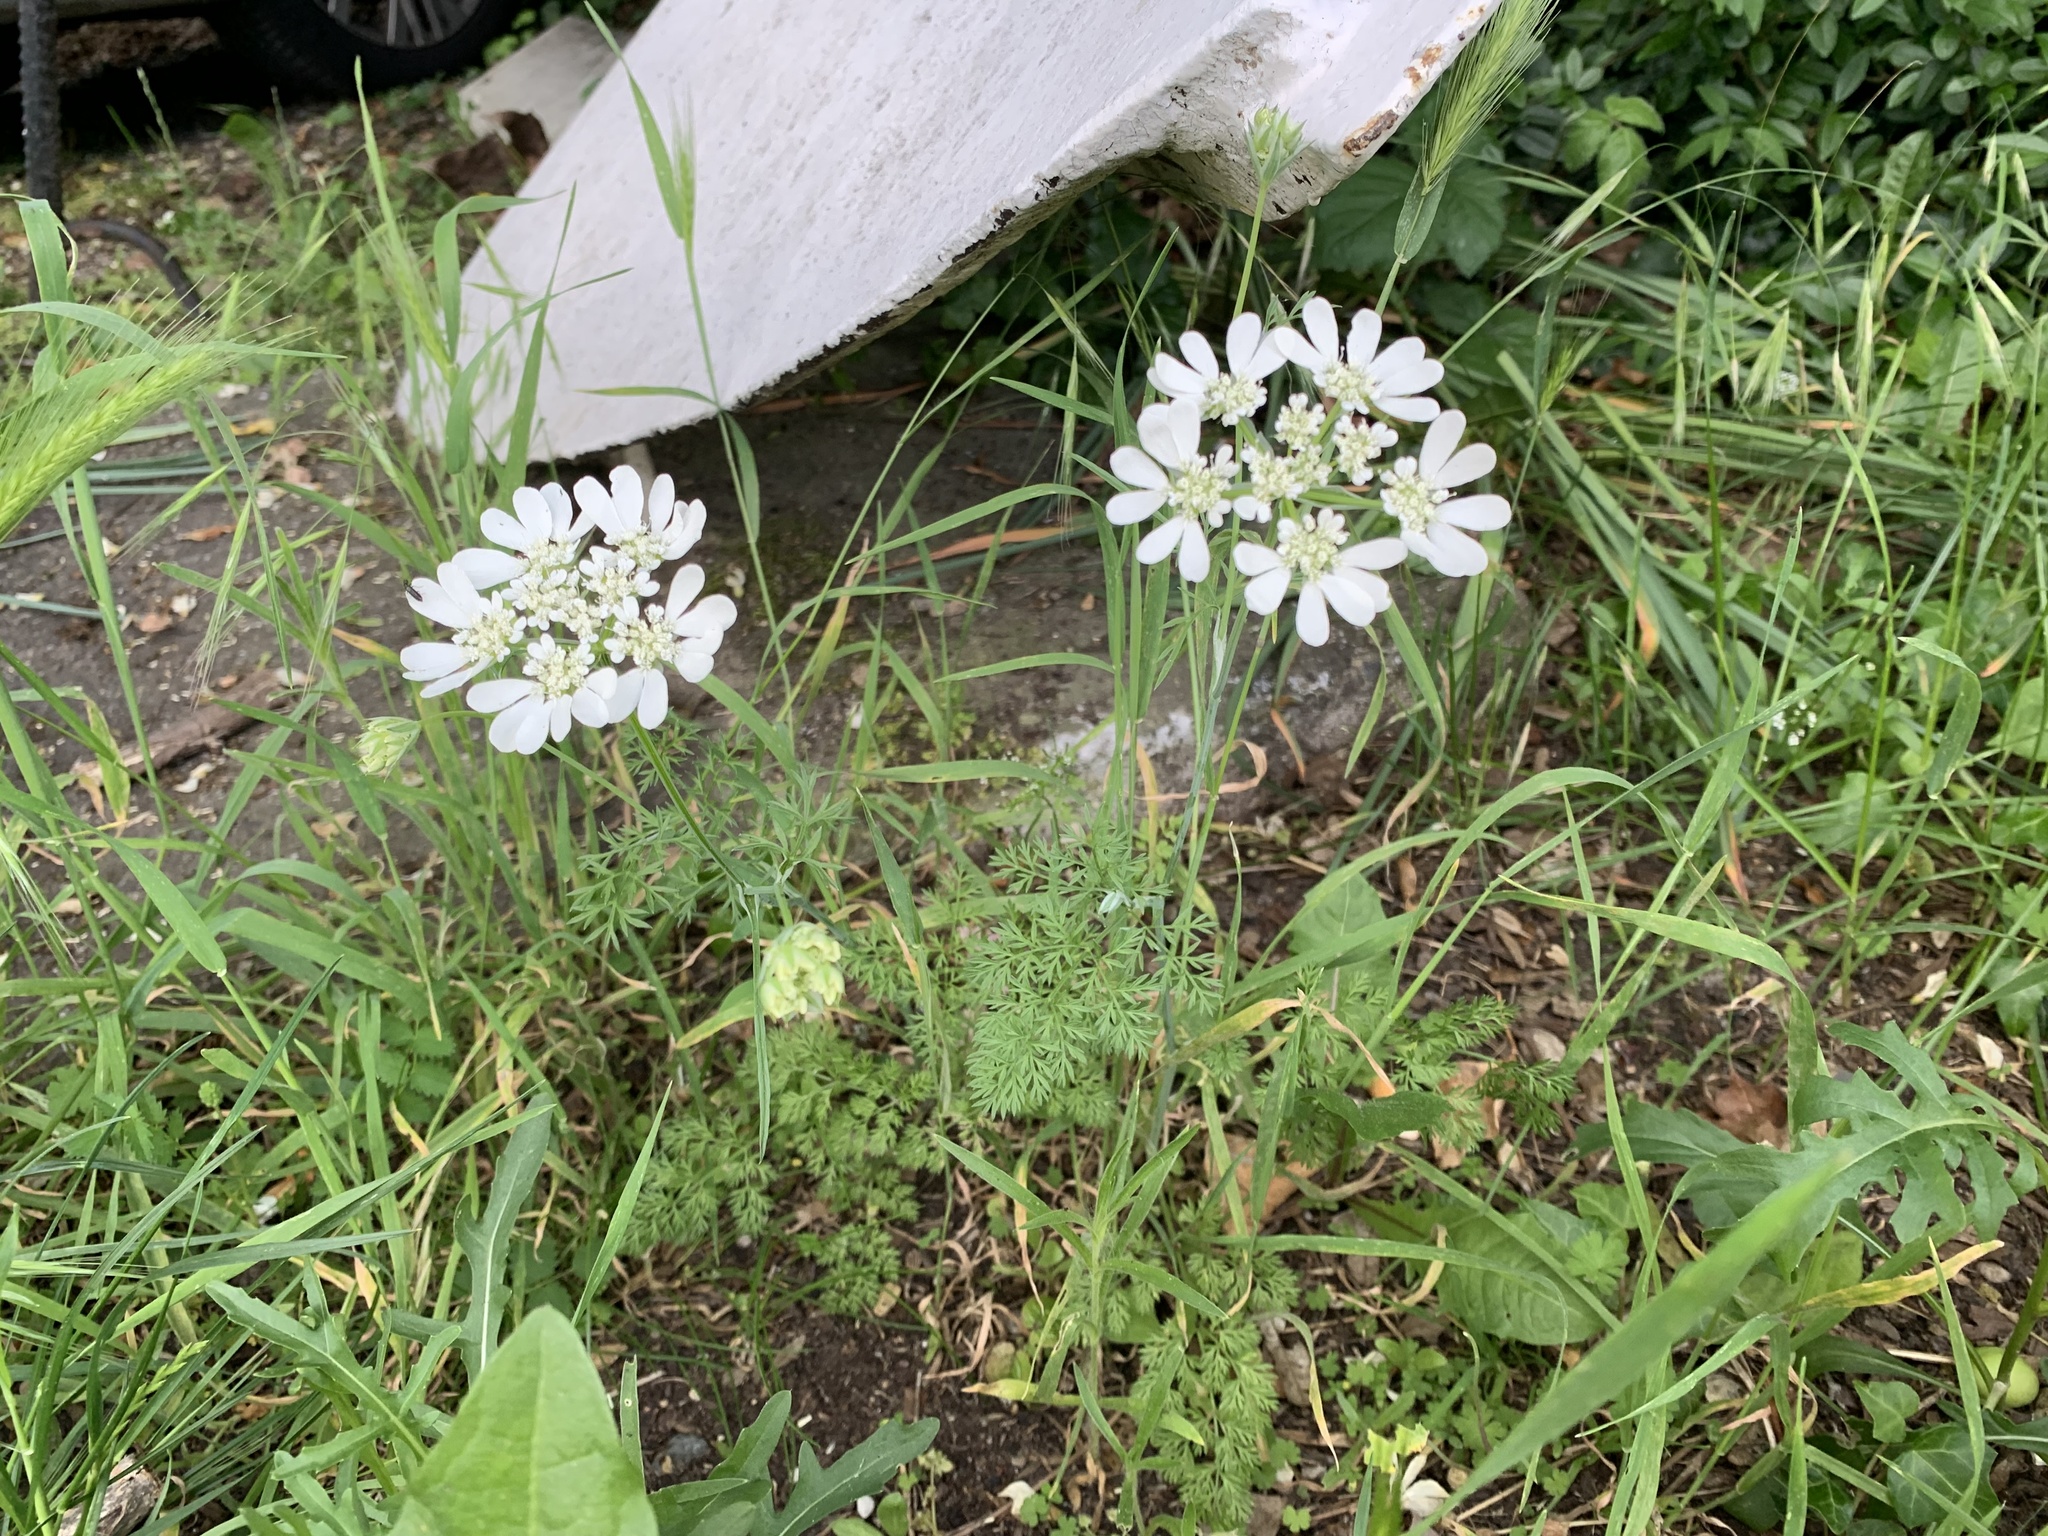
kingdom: Plantae
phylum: Tracheophyta
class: Magnoliopsida
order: Apiales
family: Apiaceae
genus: Orlaya
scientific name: Orlaya grandiflora
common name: White lace flower
